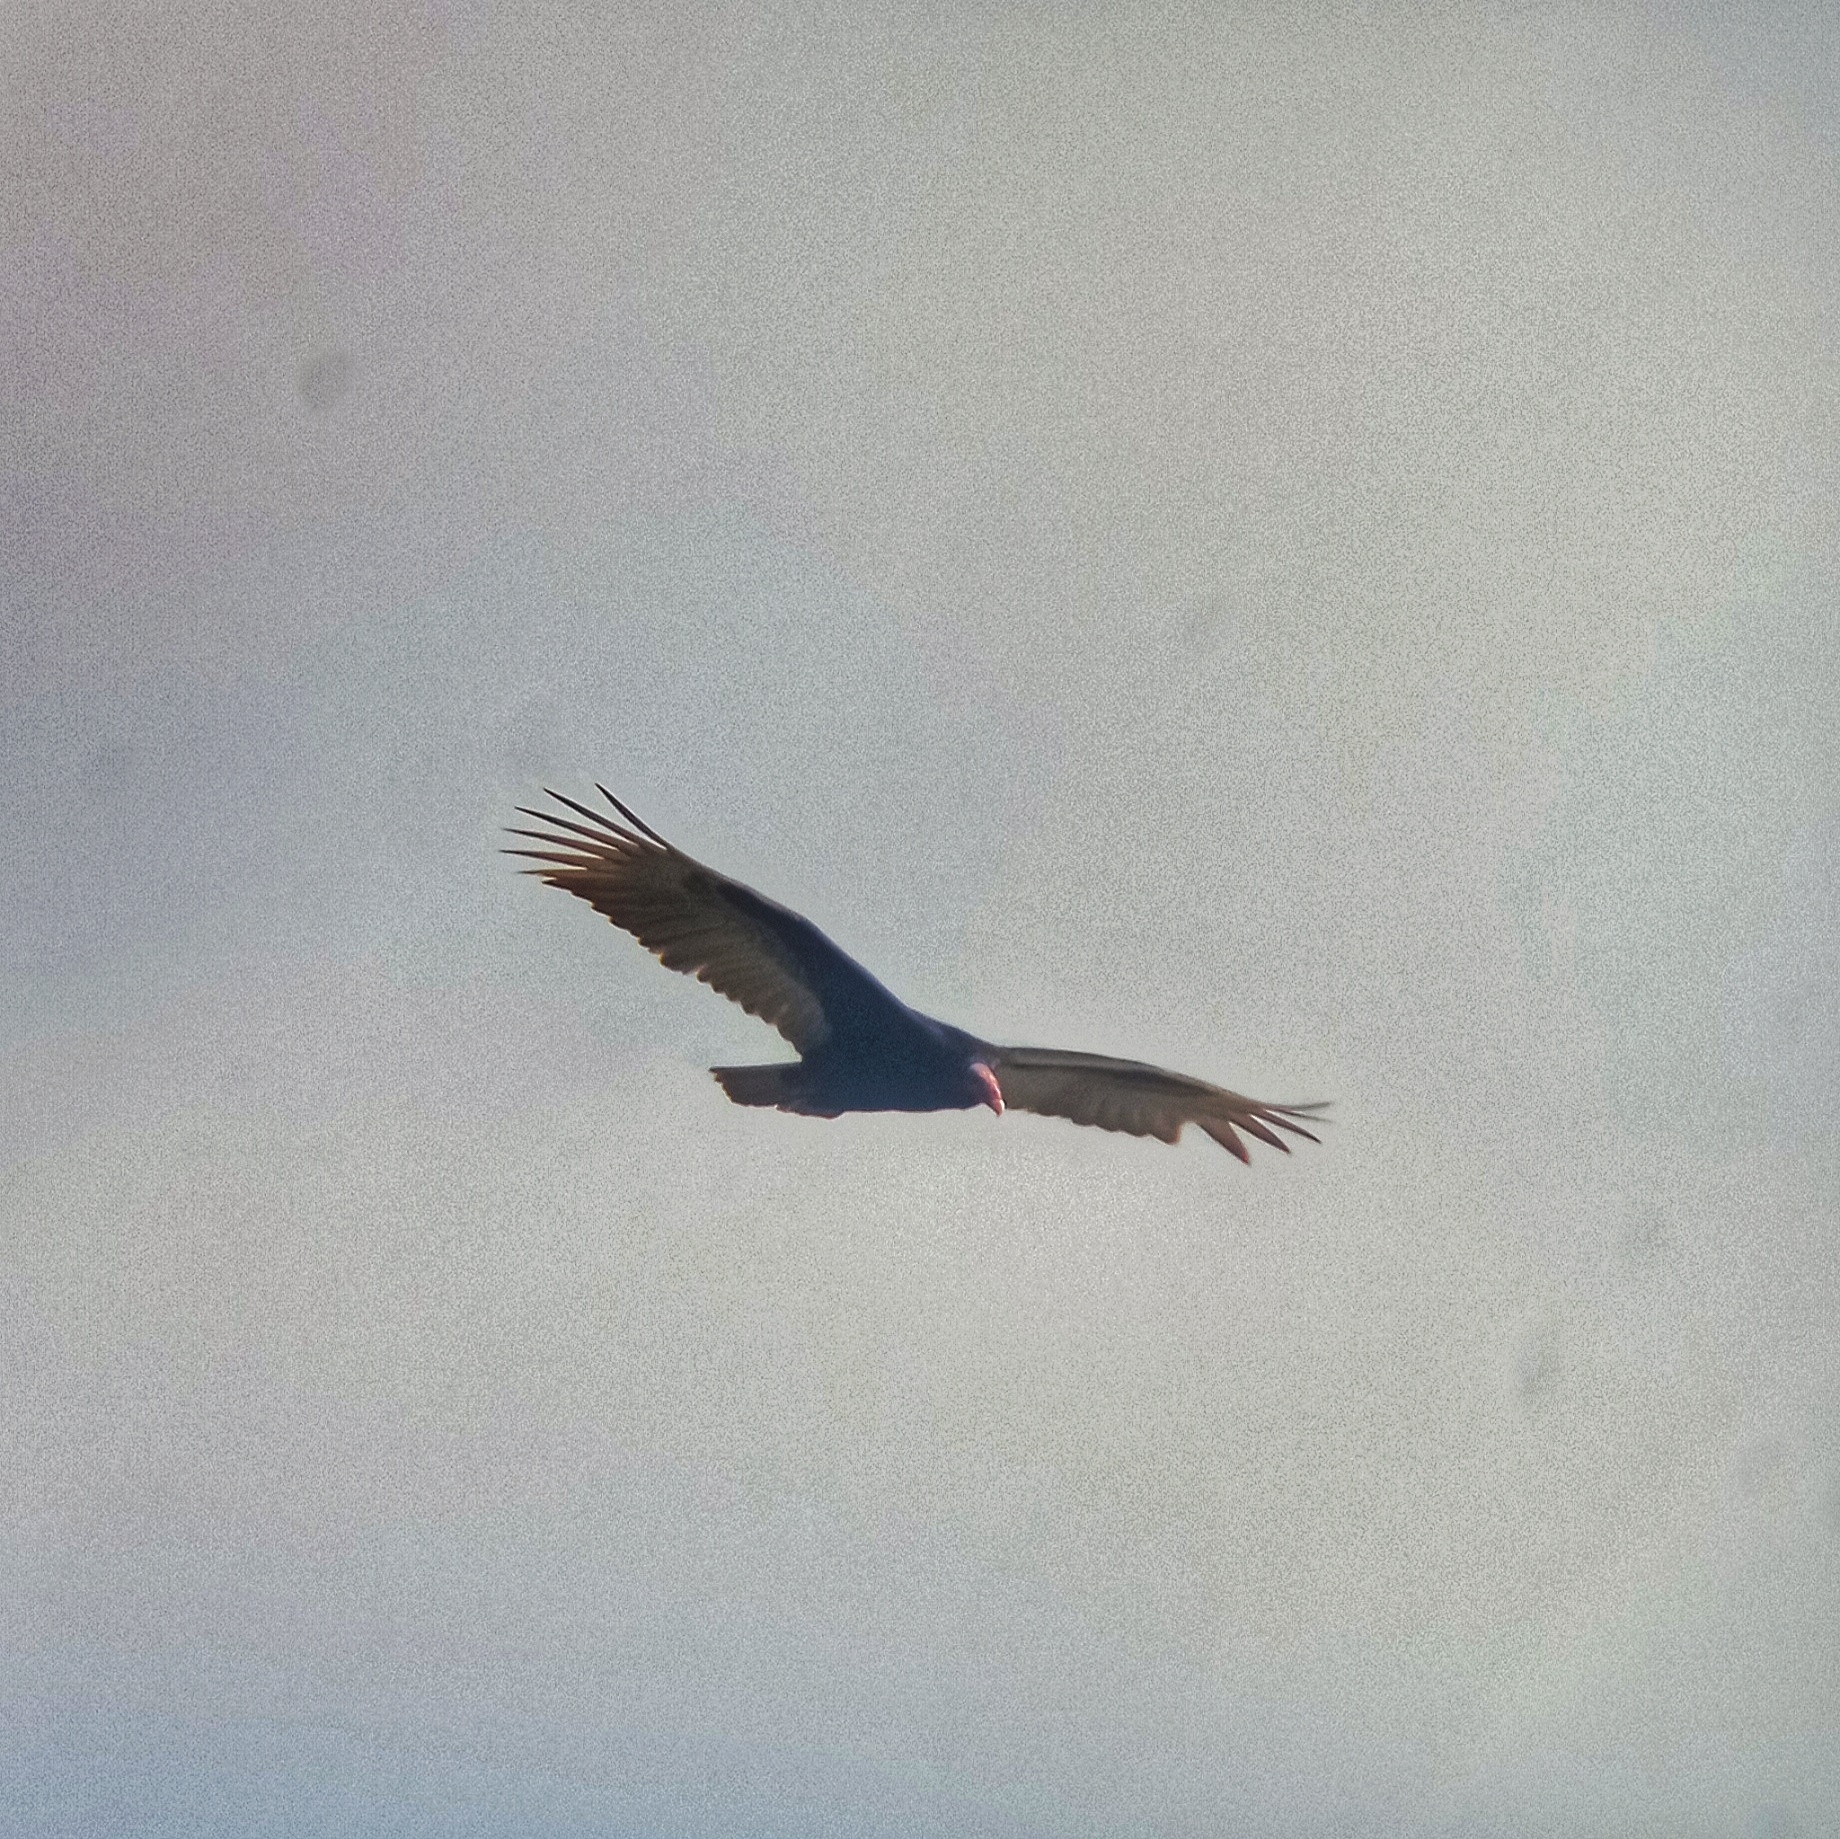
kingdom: Animalia
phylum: Chordata
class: Aves
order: Accipitriformes
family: Cathartidae
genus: Cathartes
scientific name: Cathartes aura
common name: Turkey vulture
